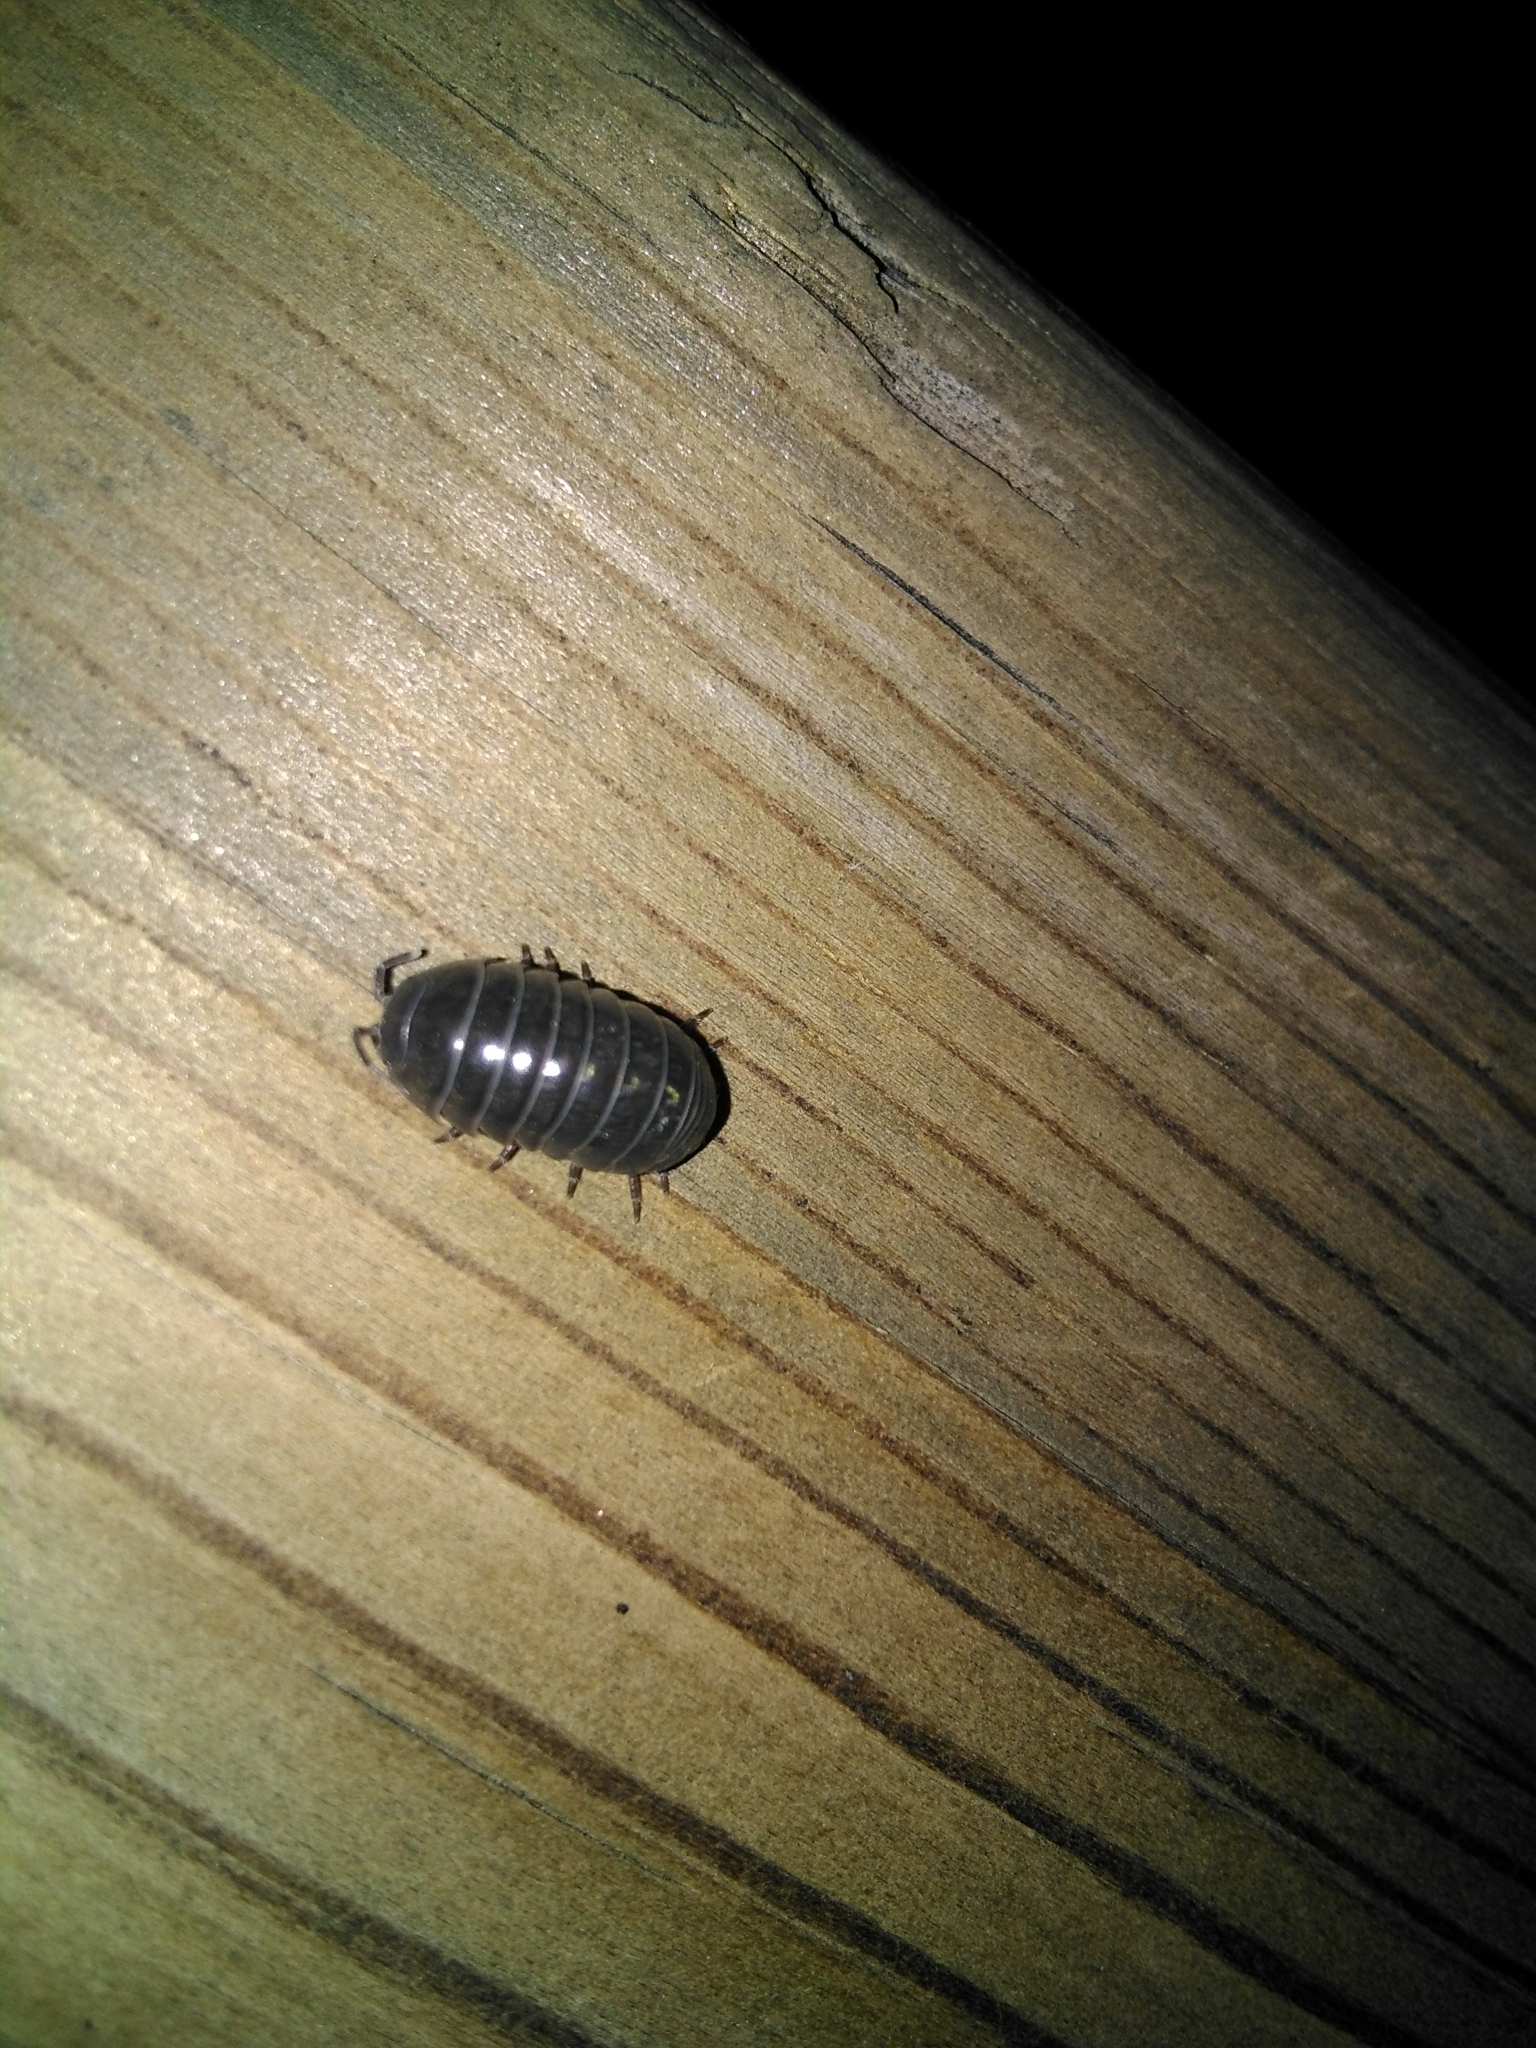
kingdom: Animalia
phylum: Arthropoda
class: Malacostraca
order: Isopoda
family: Armadillidiidae
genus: Armadillidium
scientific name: Armadillidium vulgare
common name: Common pill woodlouse
